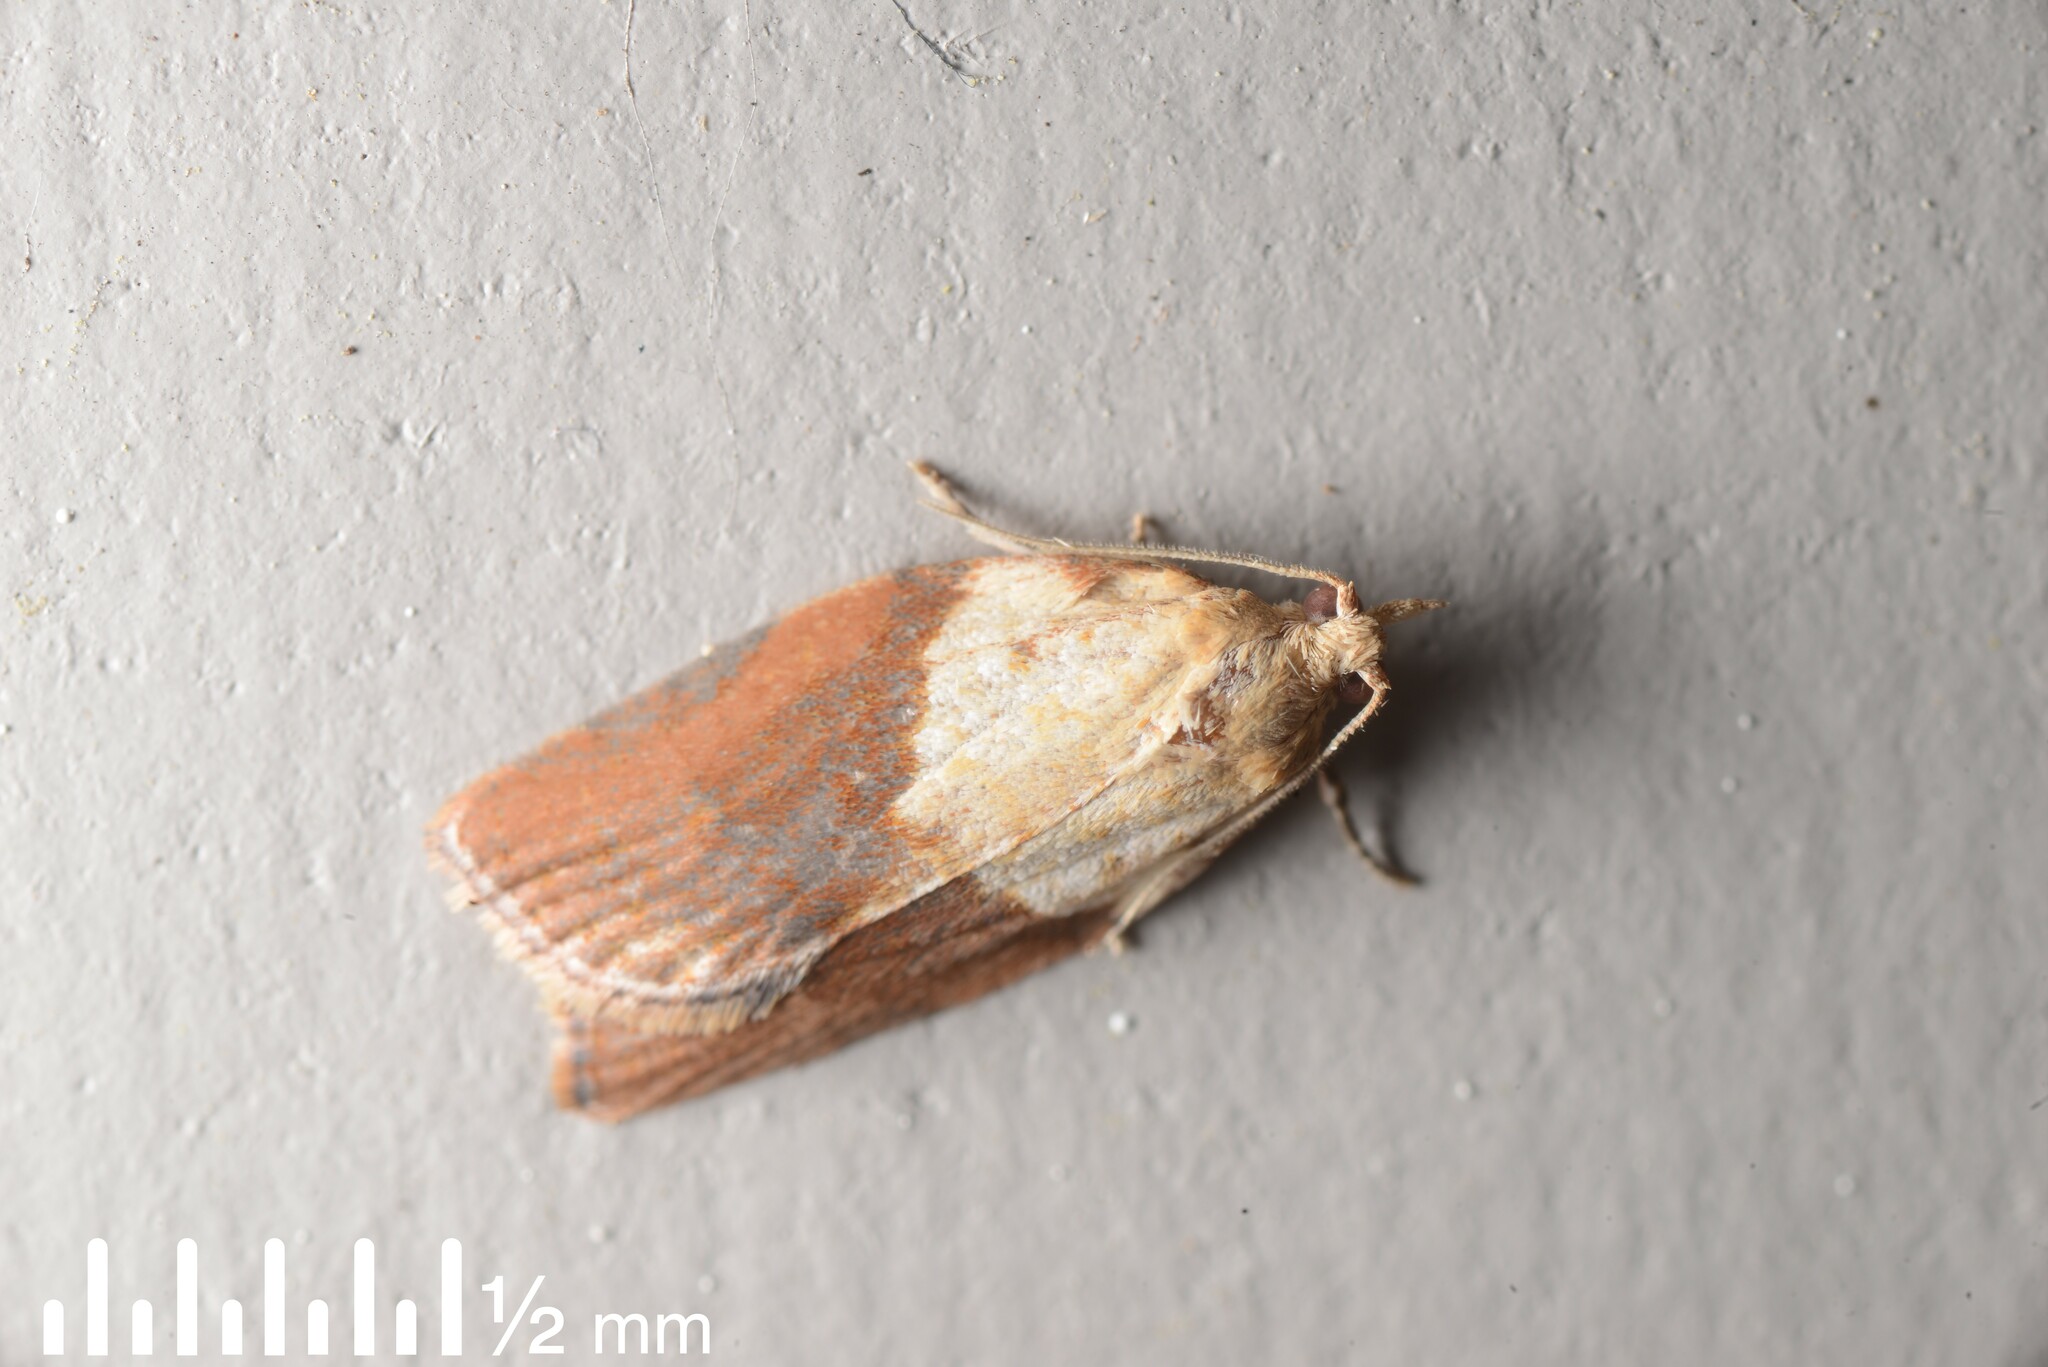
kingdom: Animalia
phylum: Arthropoda
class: Insecta
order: Lepidoptera
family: Tortricidae
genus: Epiphyas
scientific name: Epiphyas postvittana
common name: Light brown apple moth
